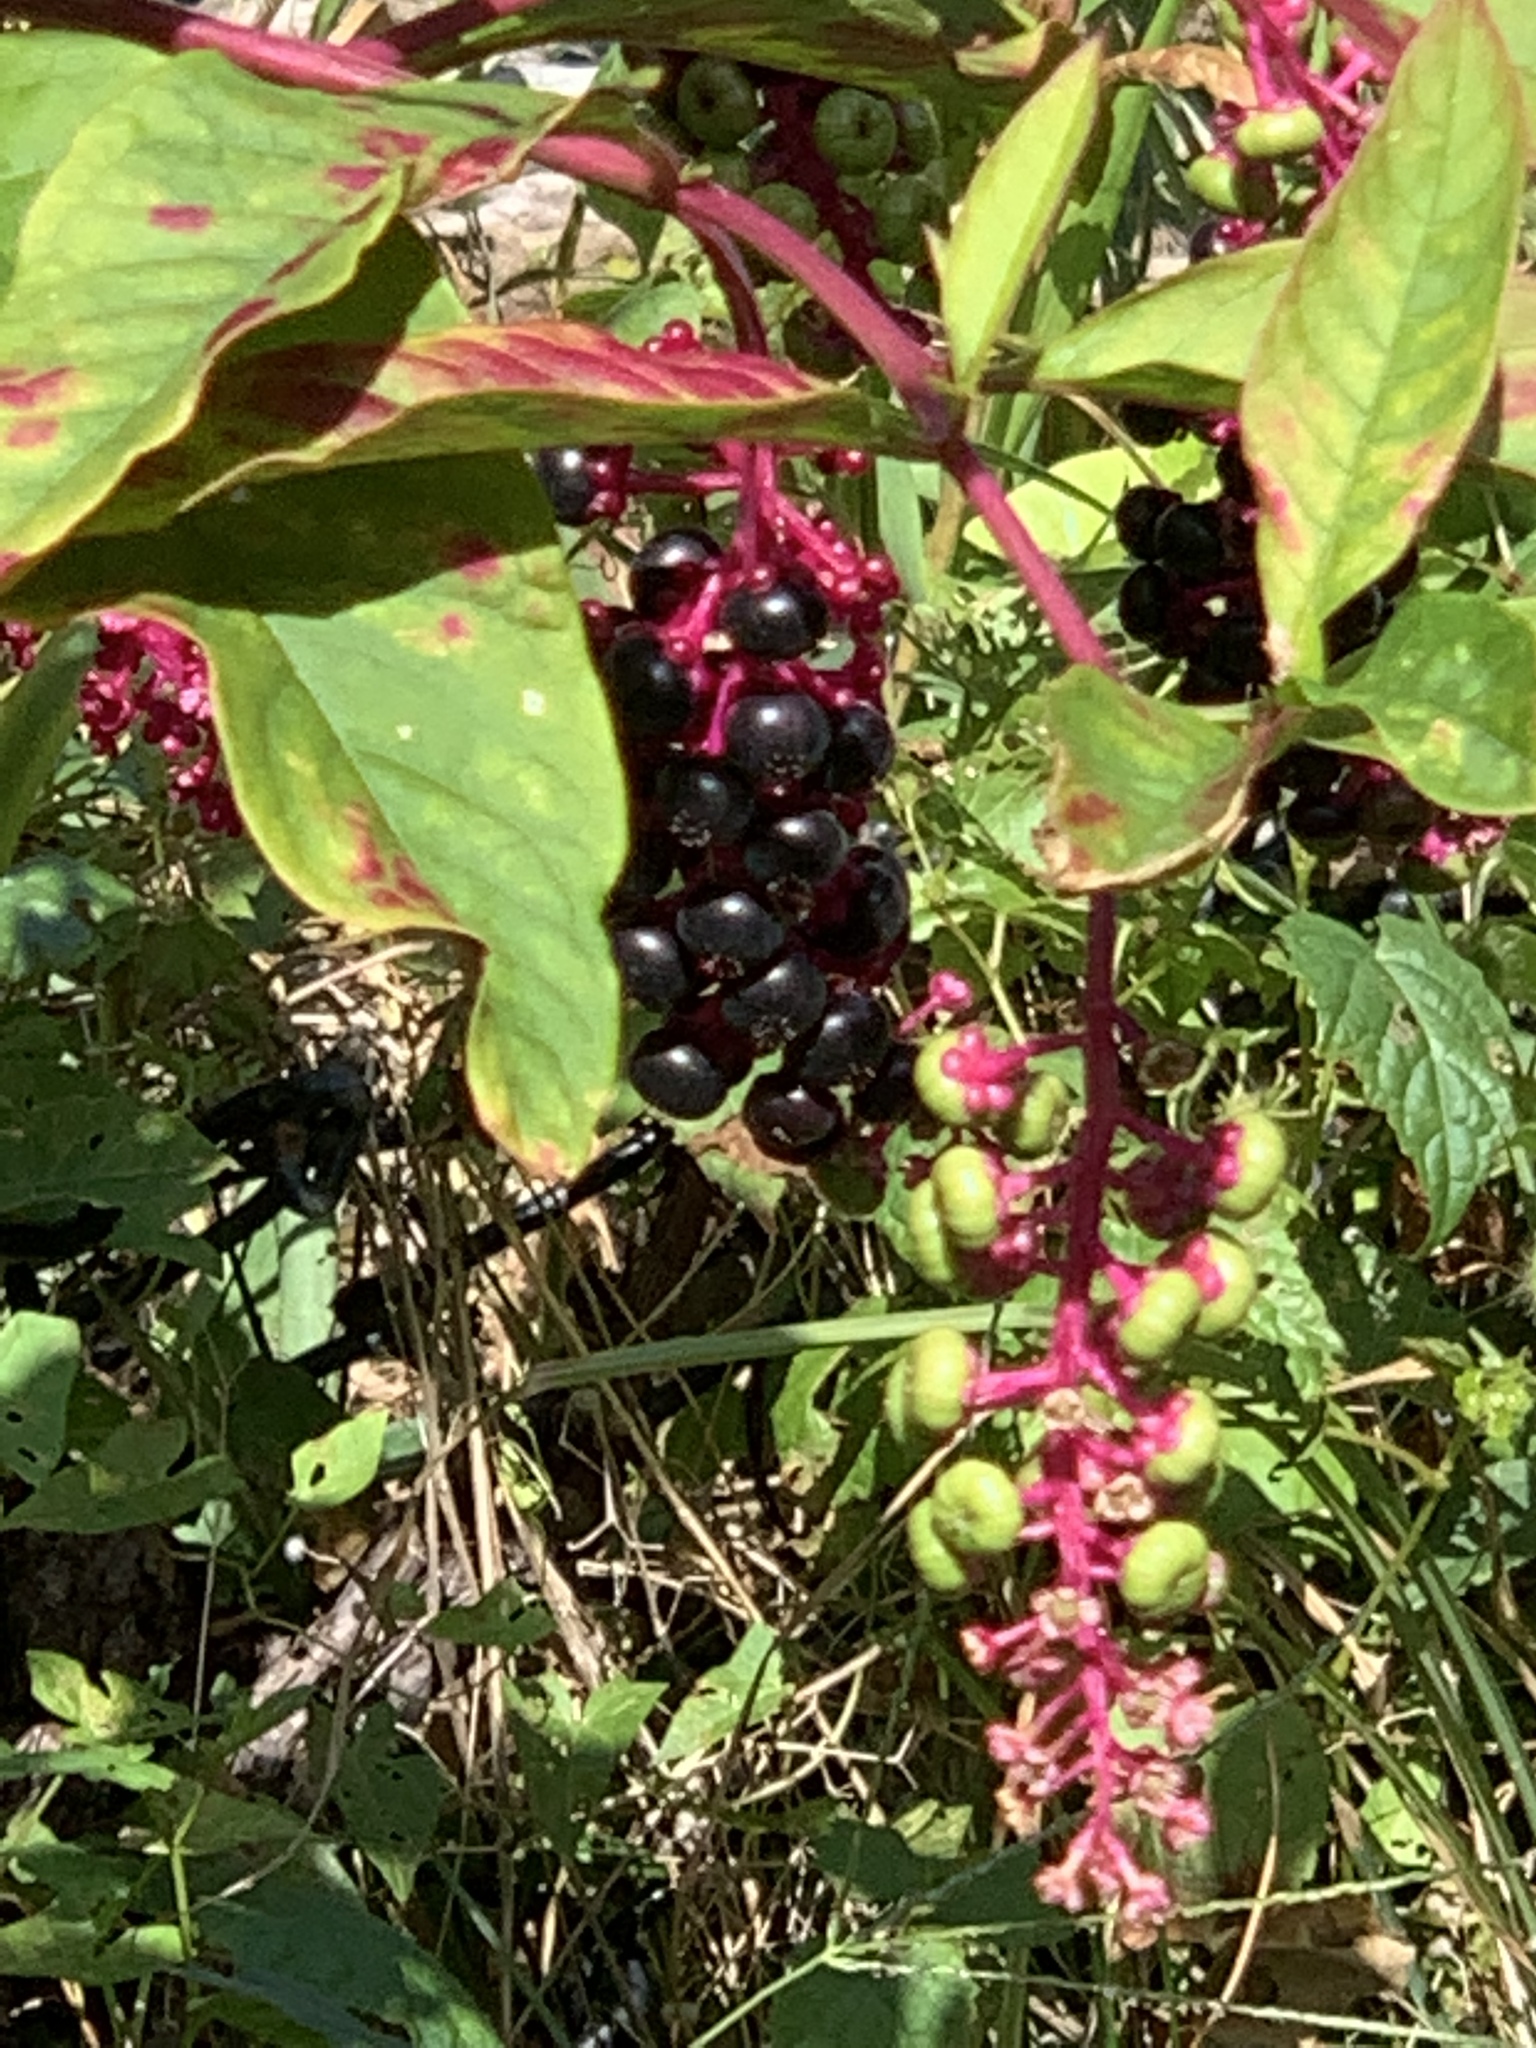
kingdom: Plantae
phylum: Tracheophyta
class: Magnoliopsida
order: Caryophyllales
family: Phytolaccaceae
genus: Phytolacca
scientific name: Phytolacca americana
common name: American pokeweed
